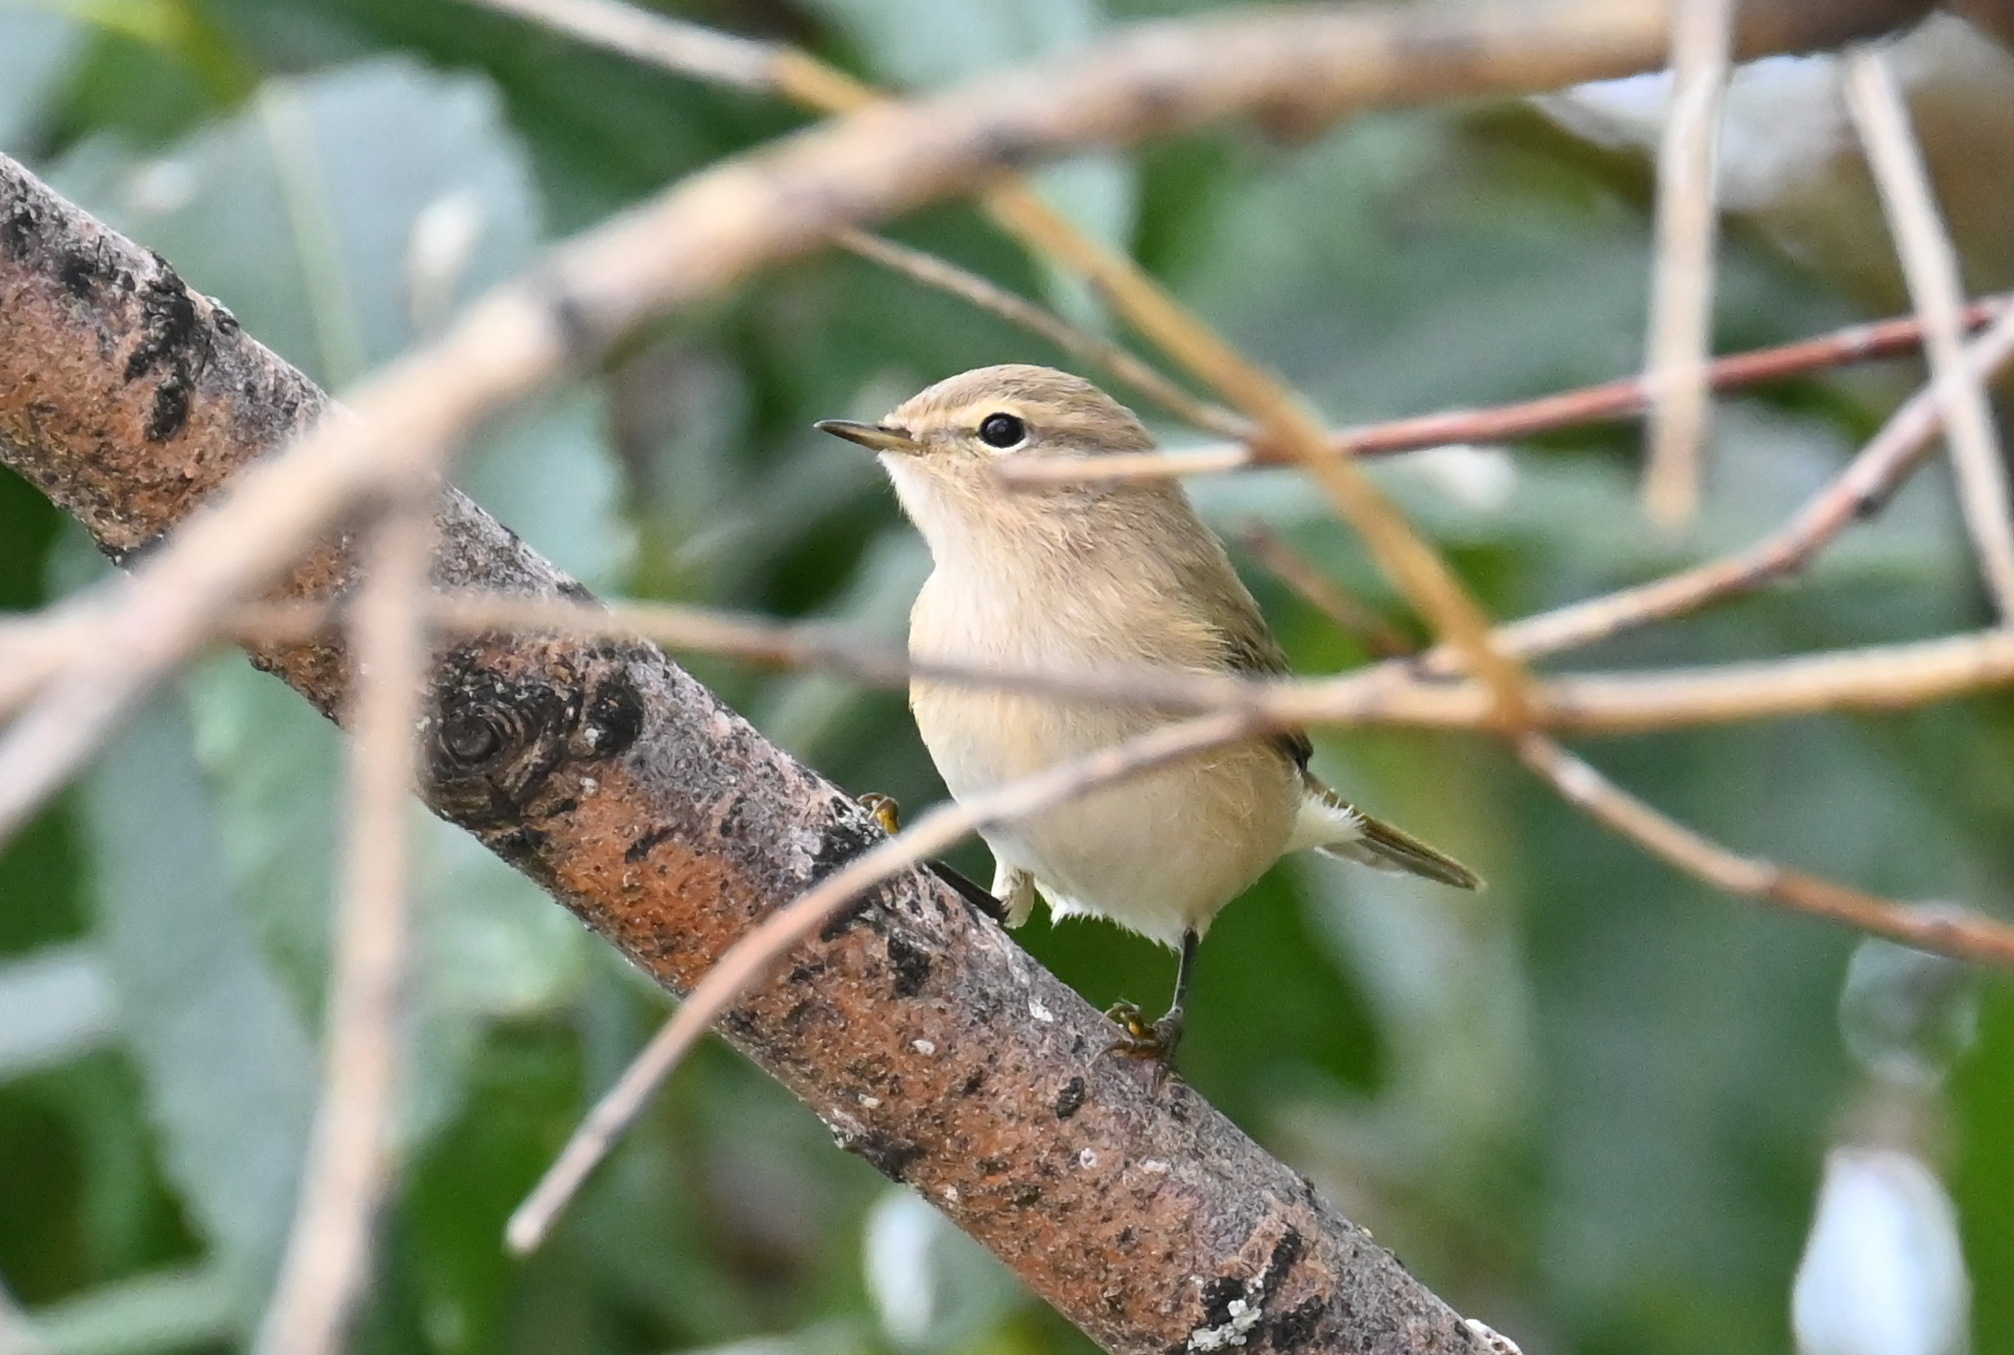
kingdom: Animalia
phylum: Chordata
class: Aves
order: Passeriformes
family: Phylloscopidae
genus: Phylloscopus
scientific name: Phylloscopus collybita
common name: Common chiffchaff
